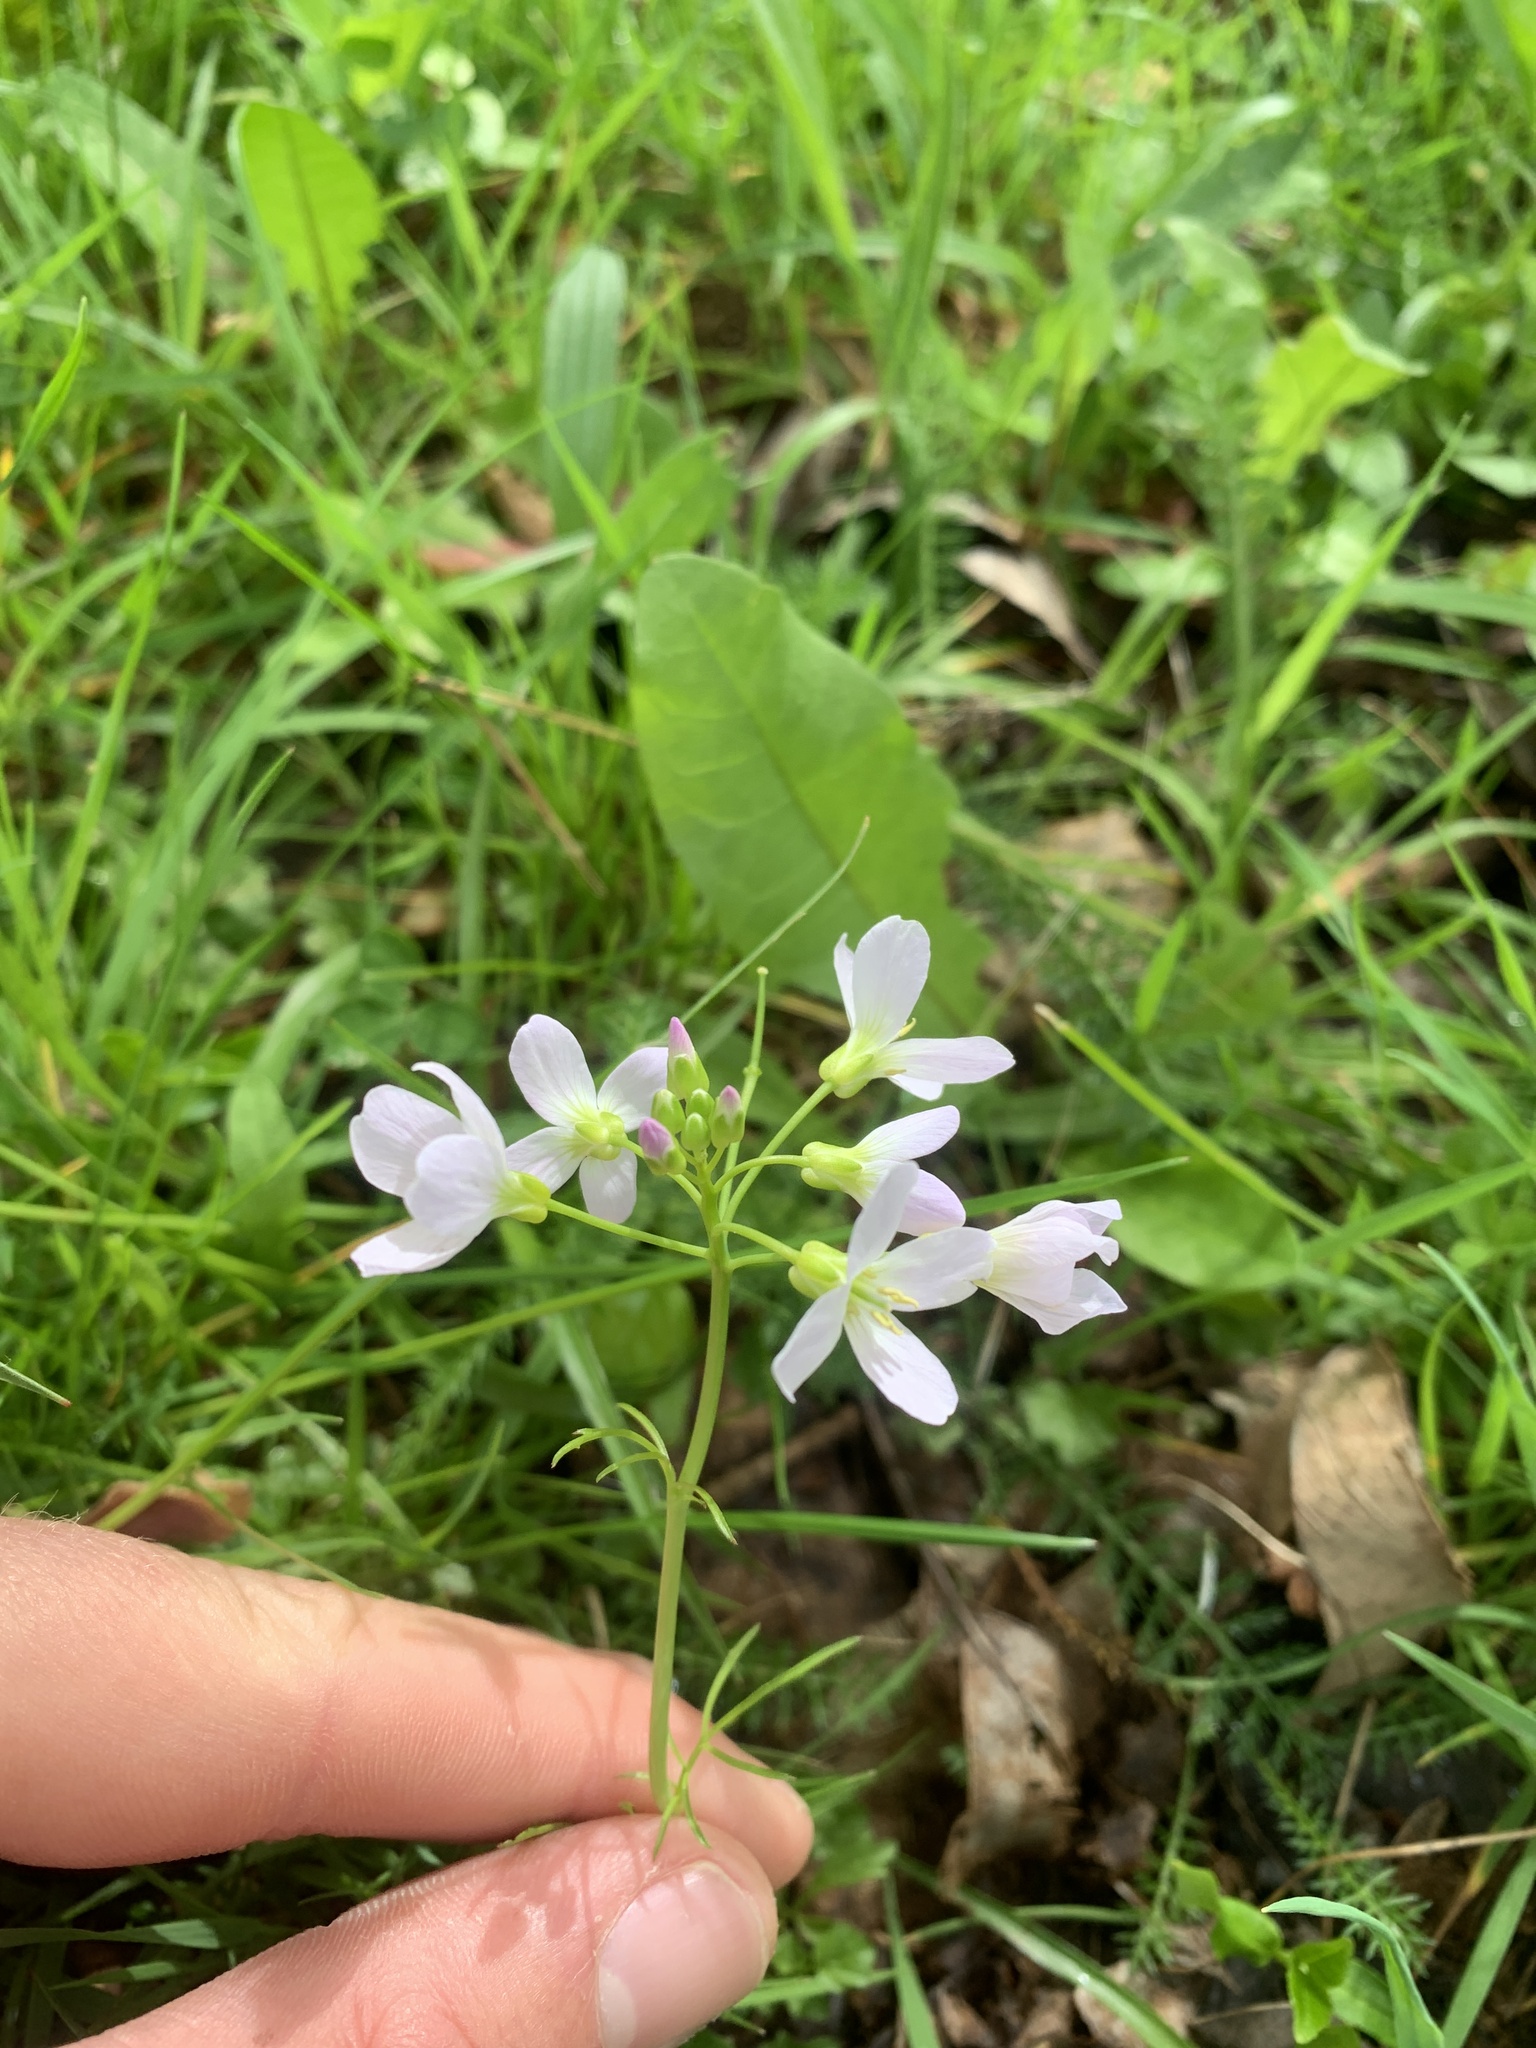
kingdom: Plantae
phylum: Tracheophyta
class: Magnoliopsida
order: Brassicales
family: Brassicaceae
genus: Cardamine
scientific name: Cardamine pratensis
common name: Cuckoo flower
